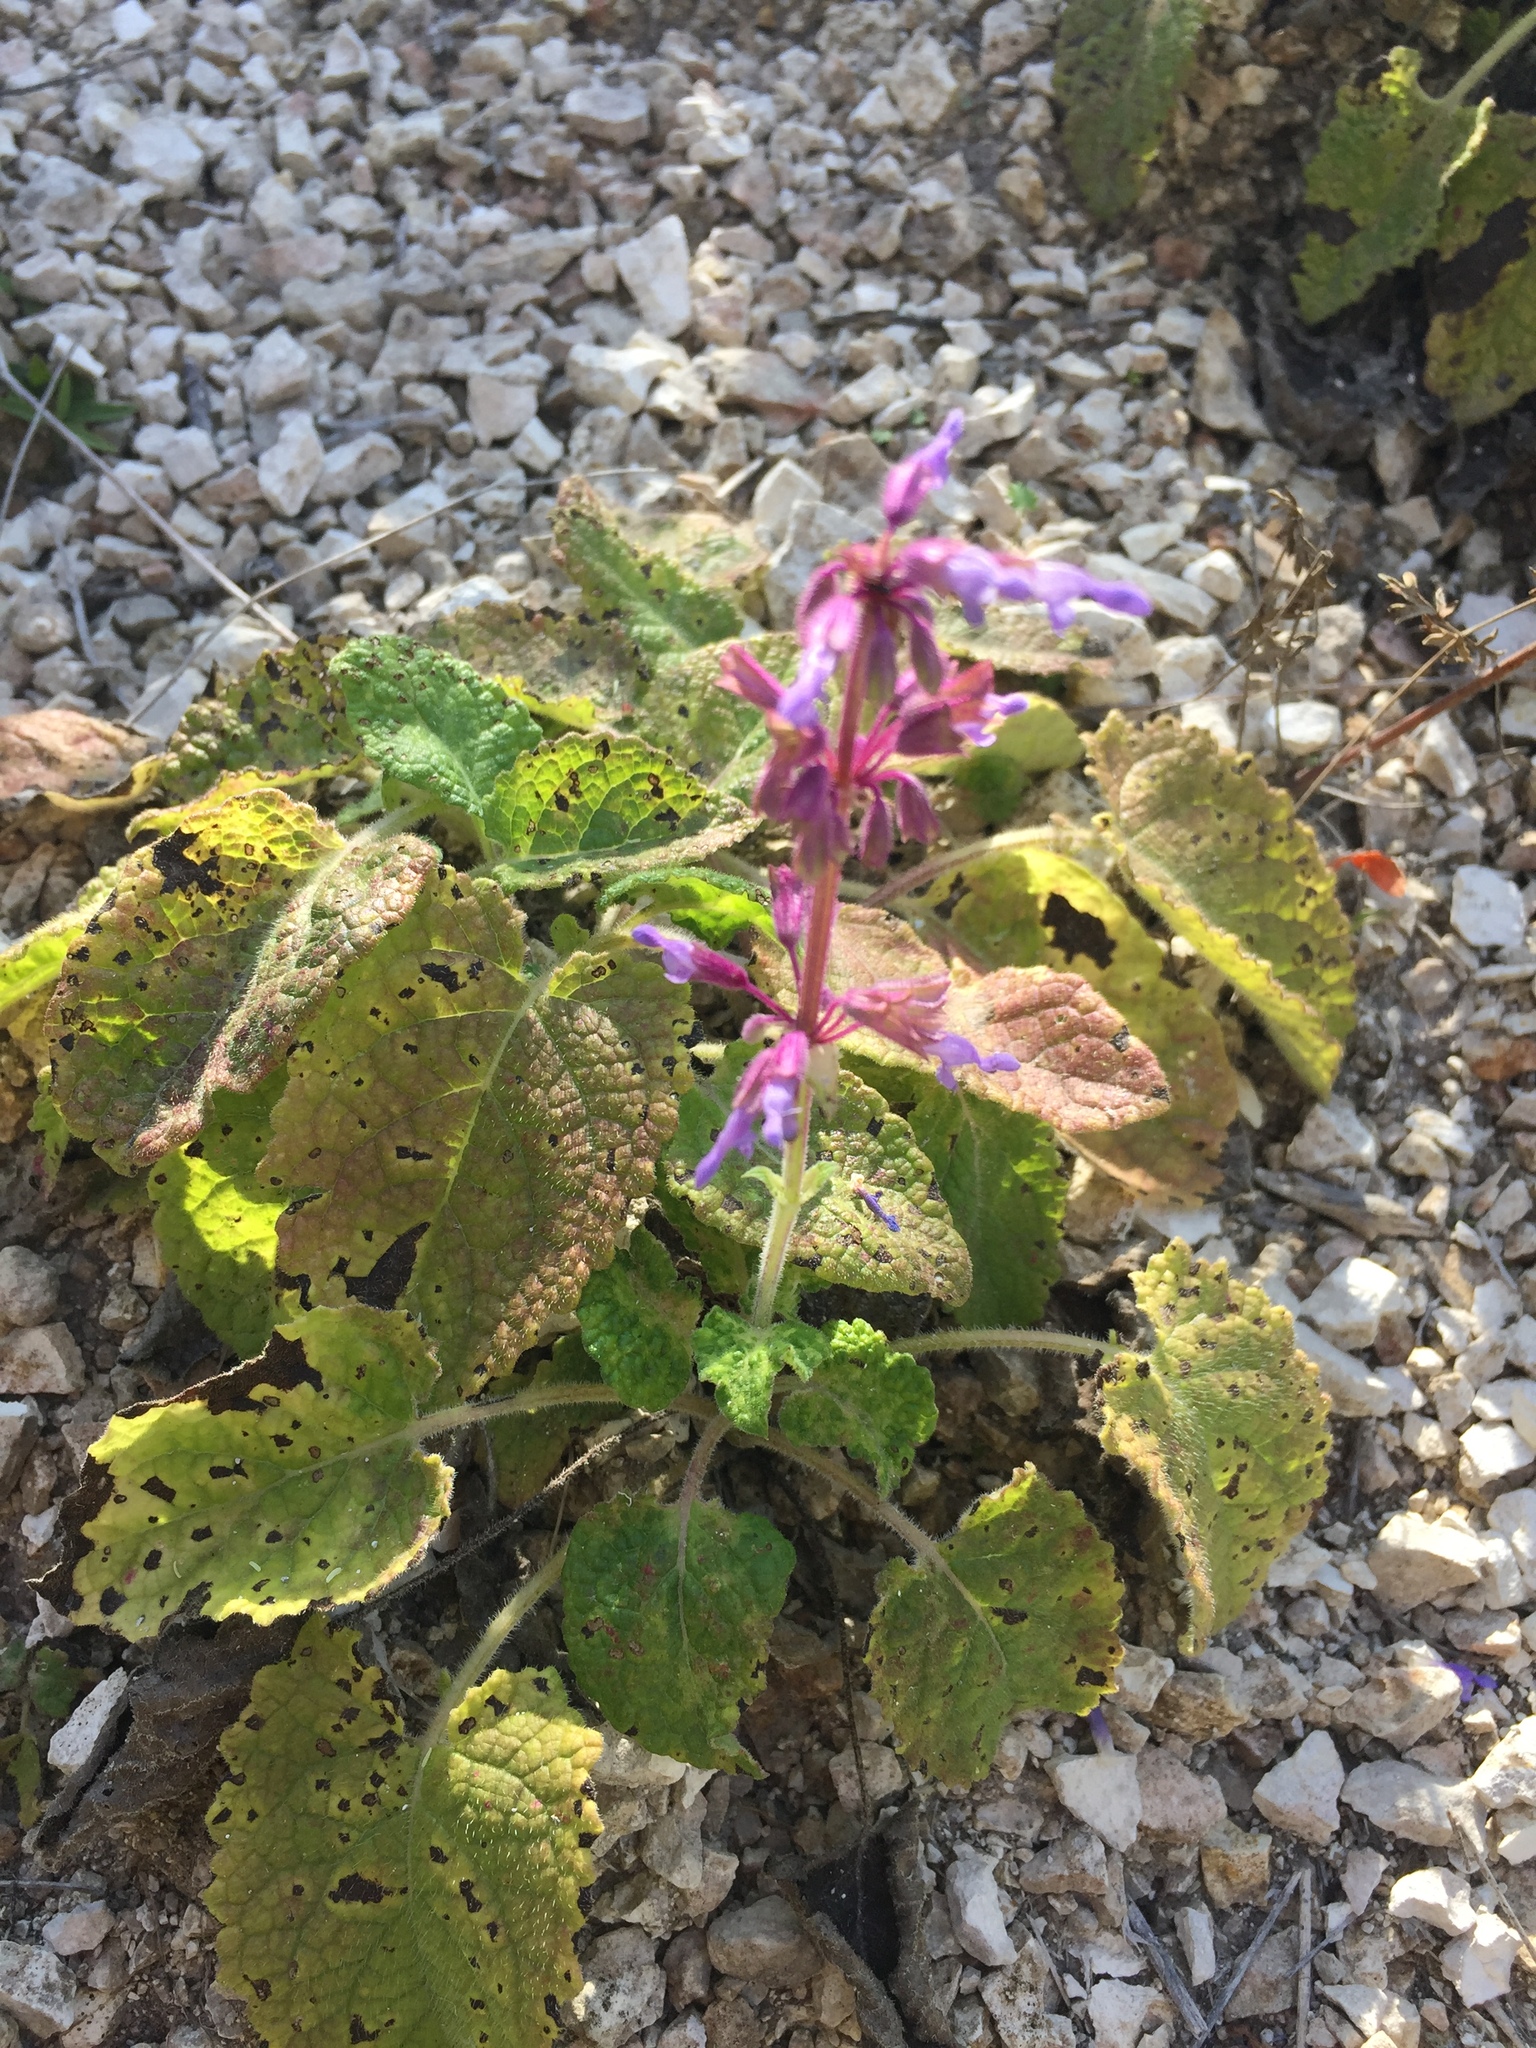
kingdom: Plantae
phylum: Tracheophyta
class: Magnoliopsida
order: Lamiales
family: Lamiaceae
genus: Salvia
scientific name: Salvia verticillata
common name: Whorled clary
